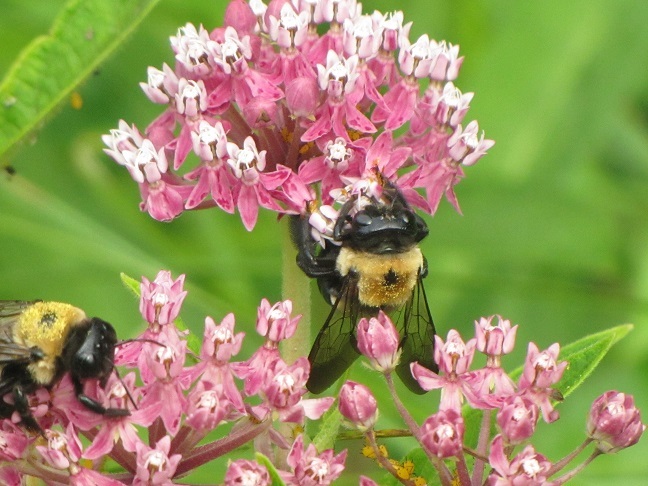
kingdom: Animalia
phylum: Arthropoda
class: Insecta
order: Hymenoptera
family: Apidae
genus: Xylocopa
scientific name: Xylocopa virginica
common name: Carpenter bee
